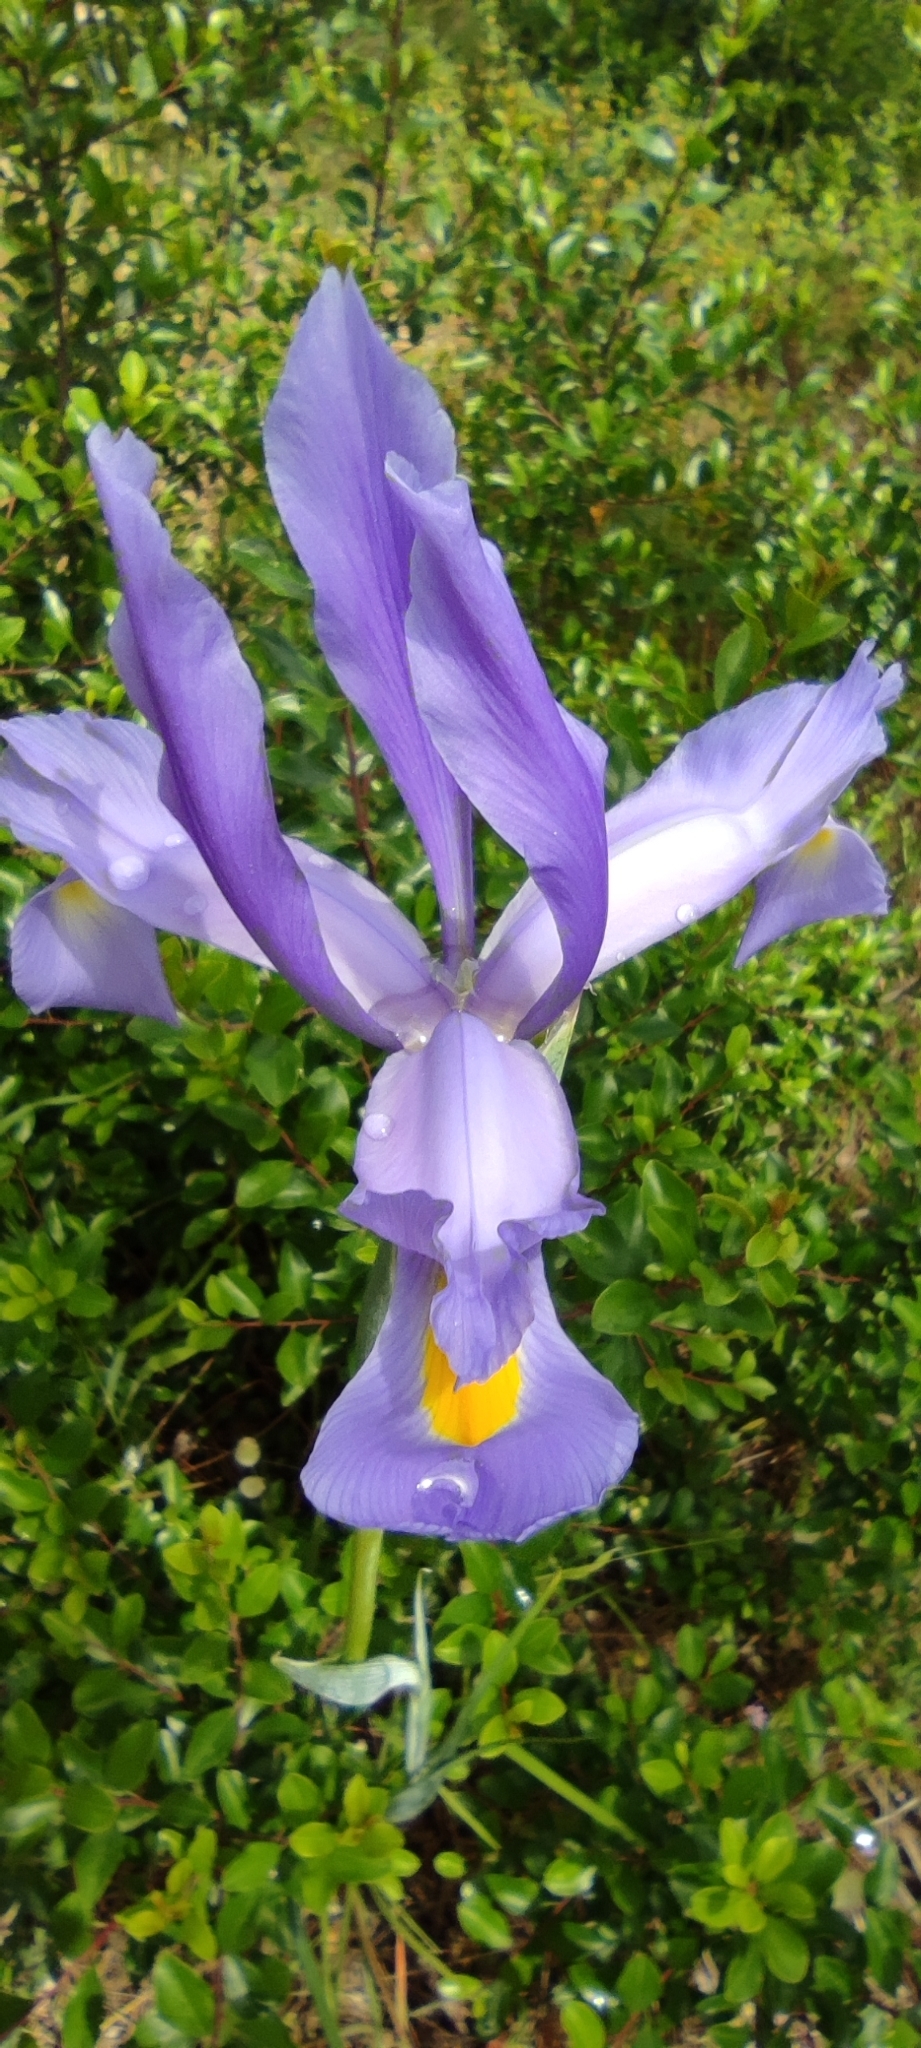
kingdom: Plantae
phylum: Tracheophyta
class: Liliopsida
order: Asparagales
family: Iridaceae
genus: Iris
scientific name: Iris xiphium
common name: Spanish iris
